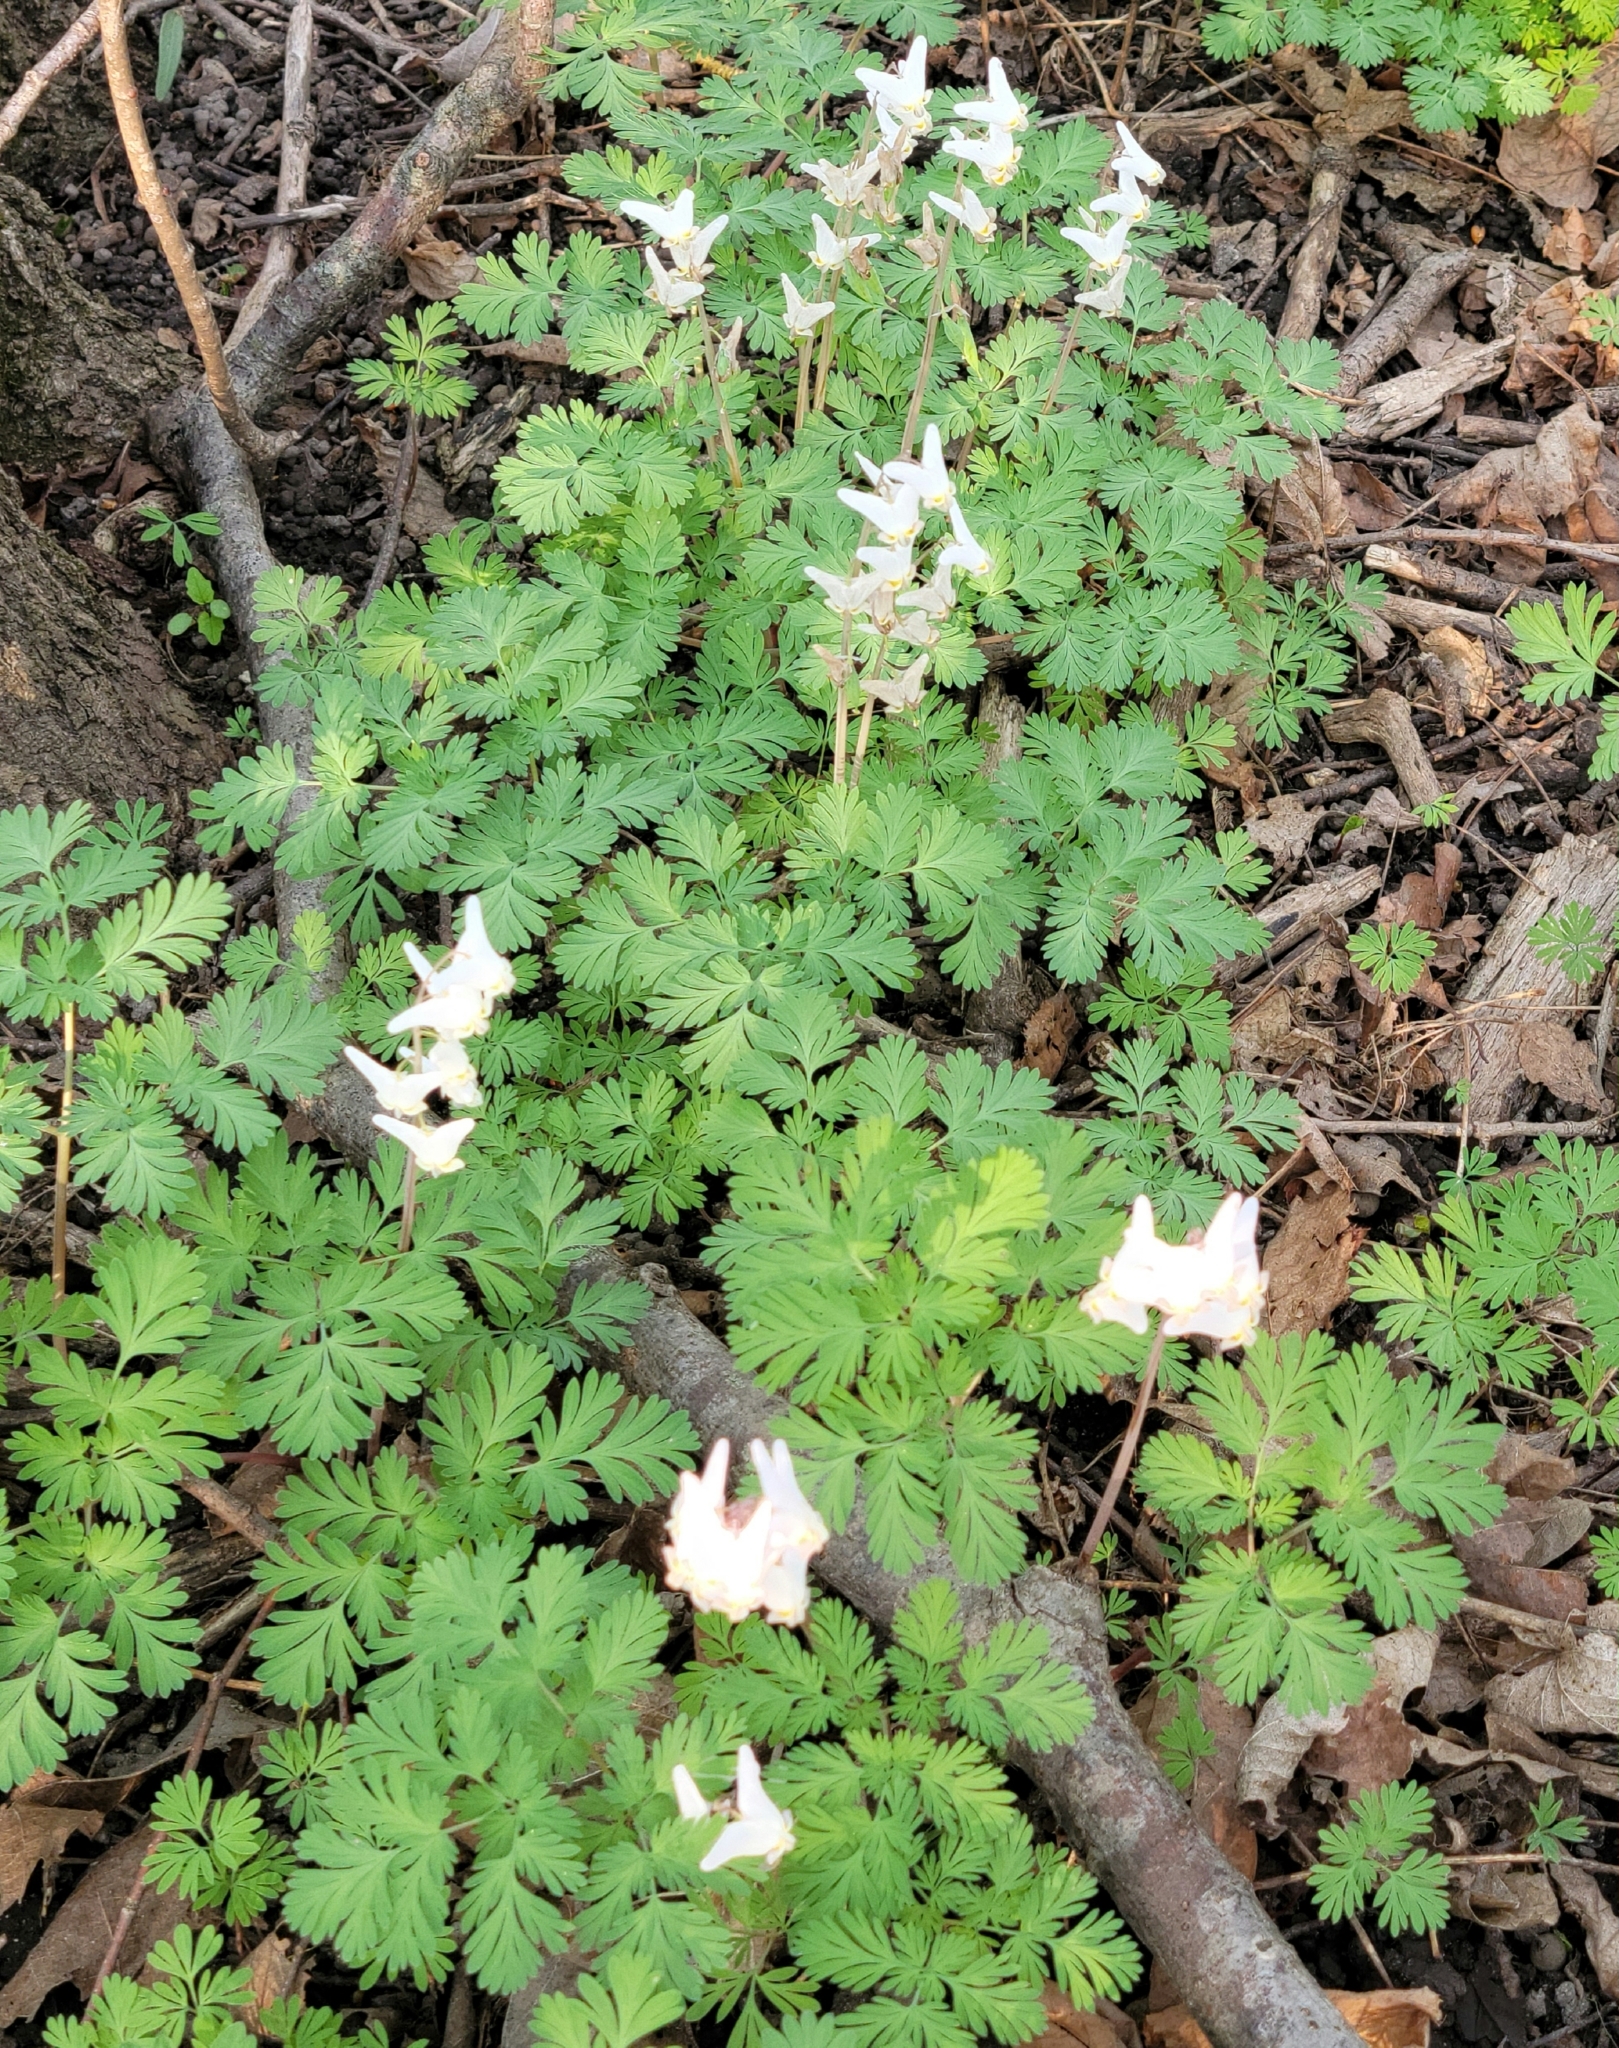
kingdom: Plantae
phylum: Tracheophyta
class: Magnoliopsida
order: Ranunculales
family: Papaveraceae
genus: Dicentra
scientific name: Dicentra cucullaria
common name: Dutchman's breeches
